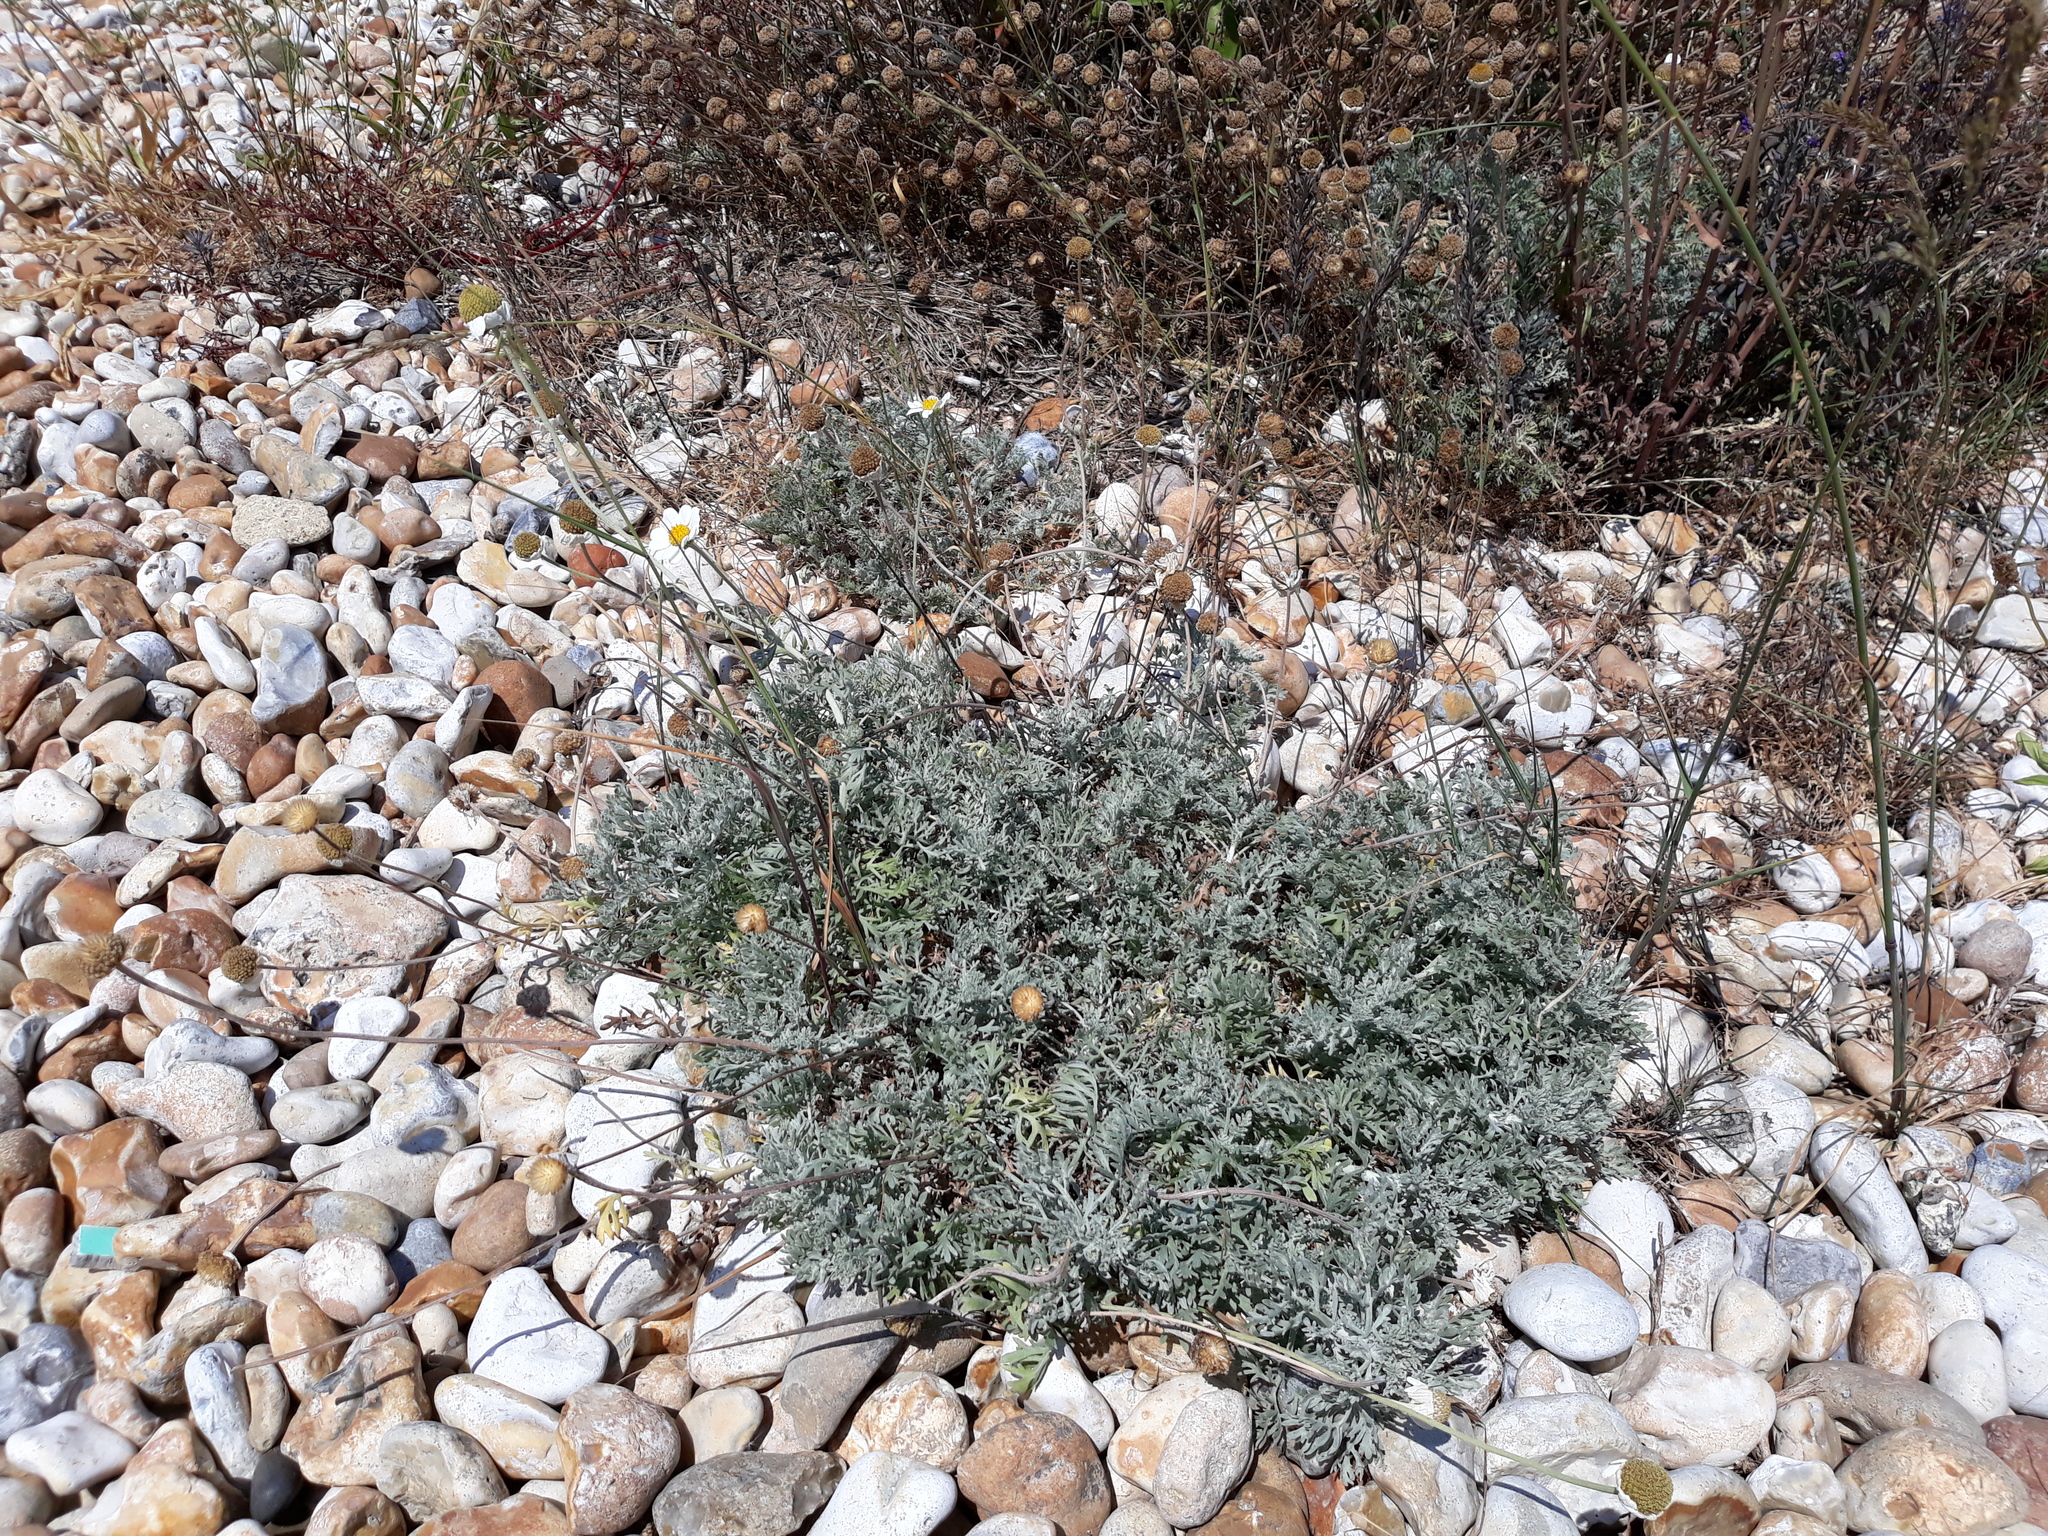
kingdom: Plantae
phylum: Tracheophyta
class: Magnoliopsida
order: Asterales
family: Asteraceae
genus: Anthemis
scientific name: Anthemis cupaniana
